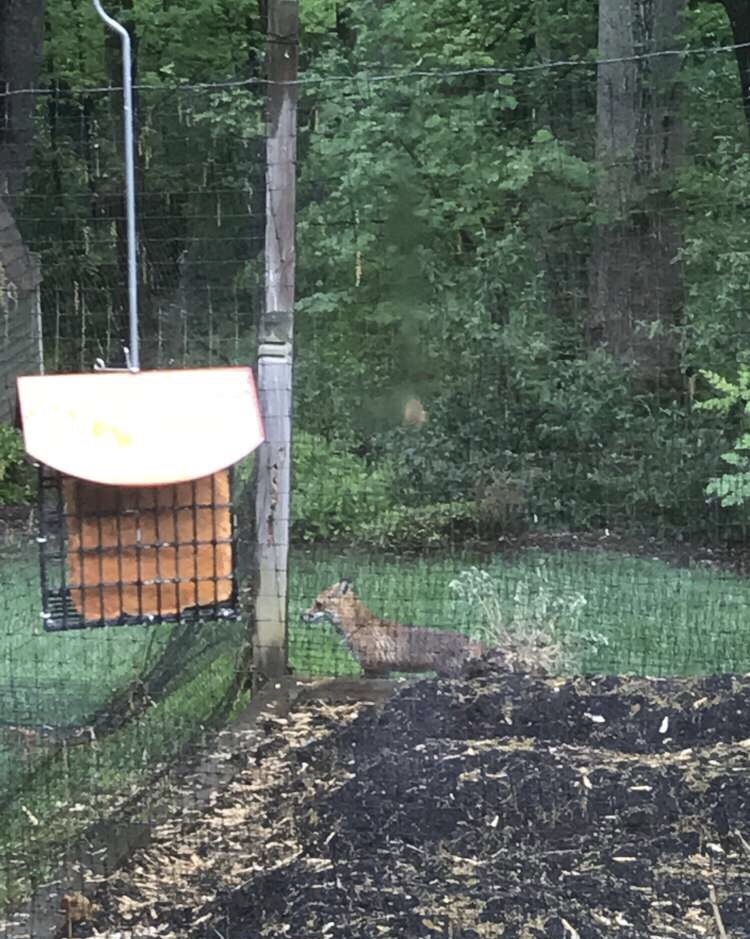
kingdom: Animalia
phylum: Chordata
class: Mammalia
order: Carnivora
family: Canidae
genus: Vulpes
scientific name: Vulpes vulpes
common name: Red fox
